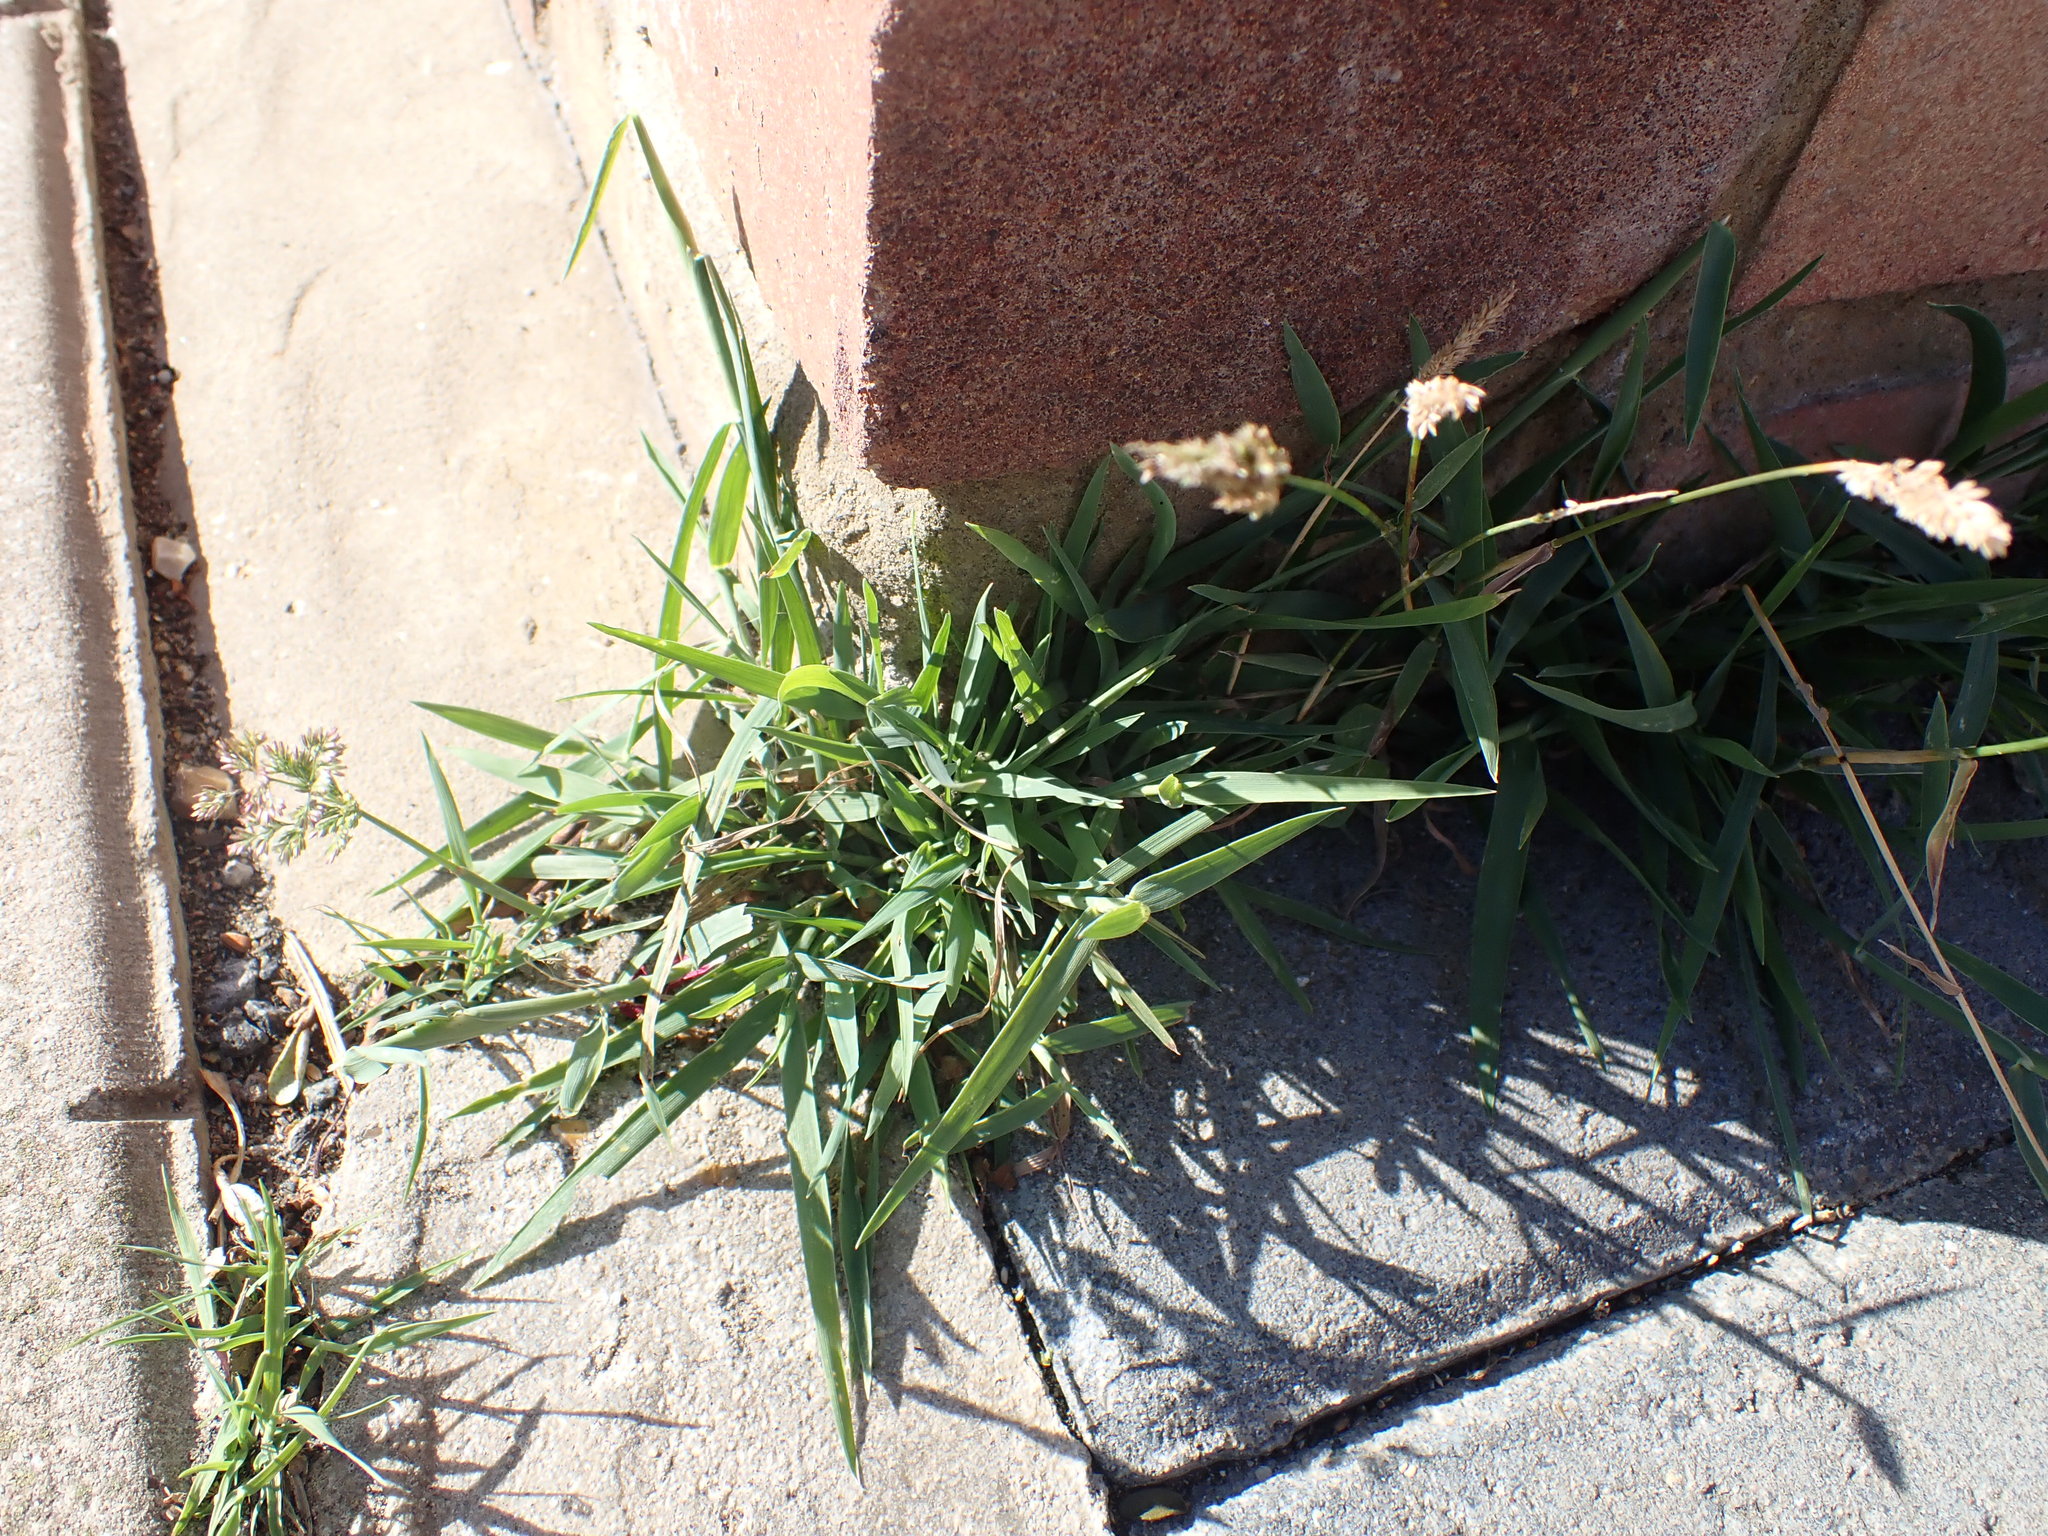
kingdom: Plantae
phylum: Tracheophyta
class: Liliopsida
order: Poales
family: Poaceae
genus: Polypogon
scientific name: Polypogon viridis
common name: Water bent
